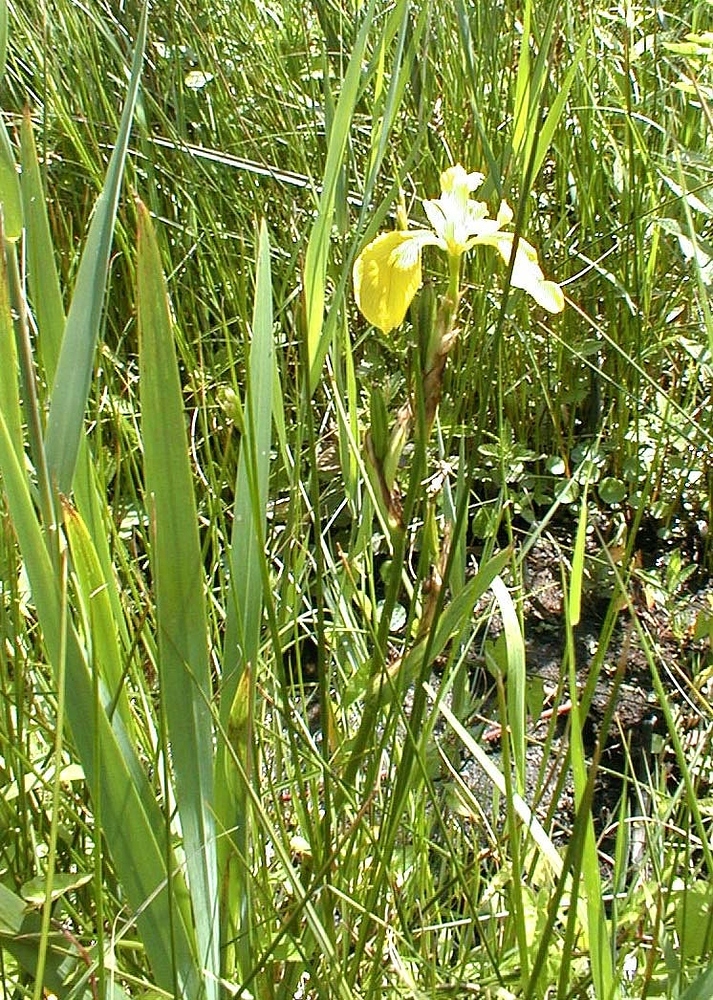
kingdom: Plantae
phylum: Tracheophyta
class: Liliopsida
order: Asparagales
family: Iridaceae
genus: Iris
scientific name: Iris pseudacorus
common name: Yellow flag
